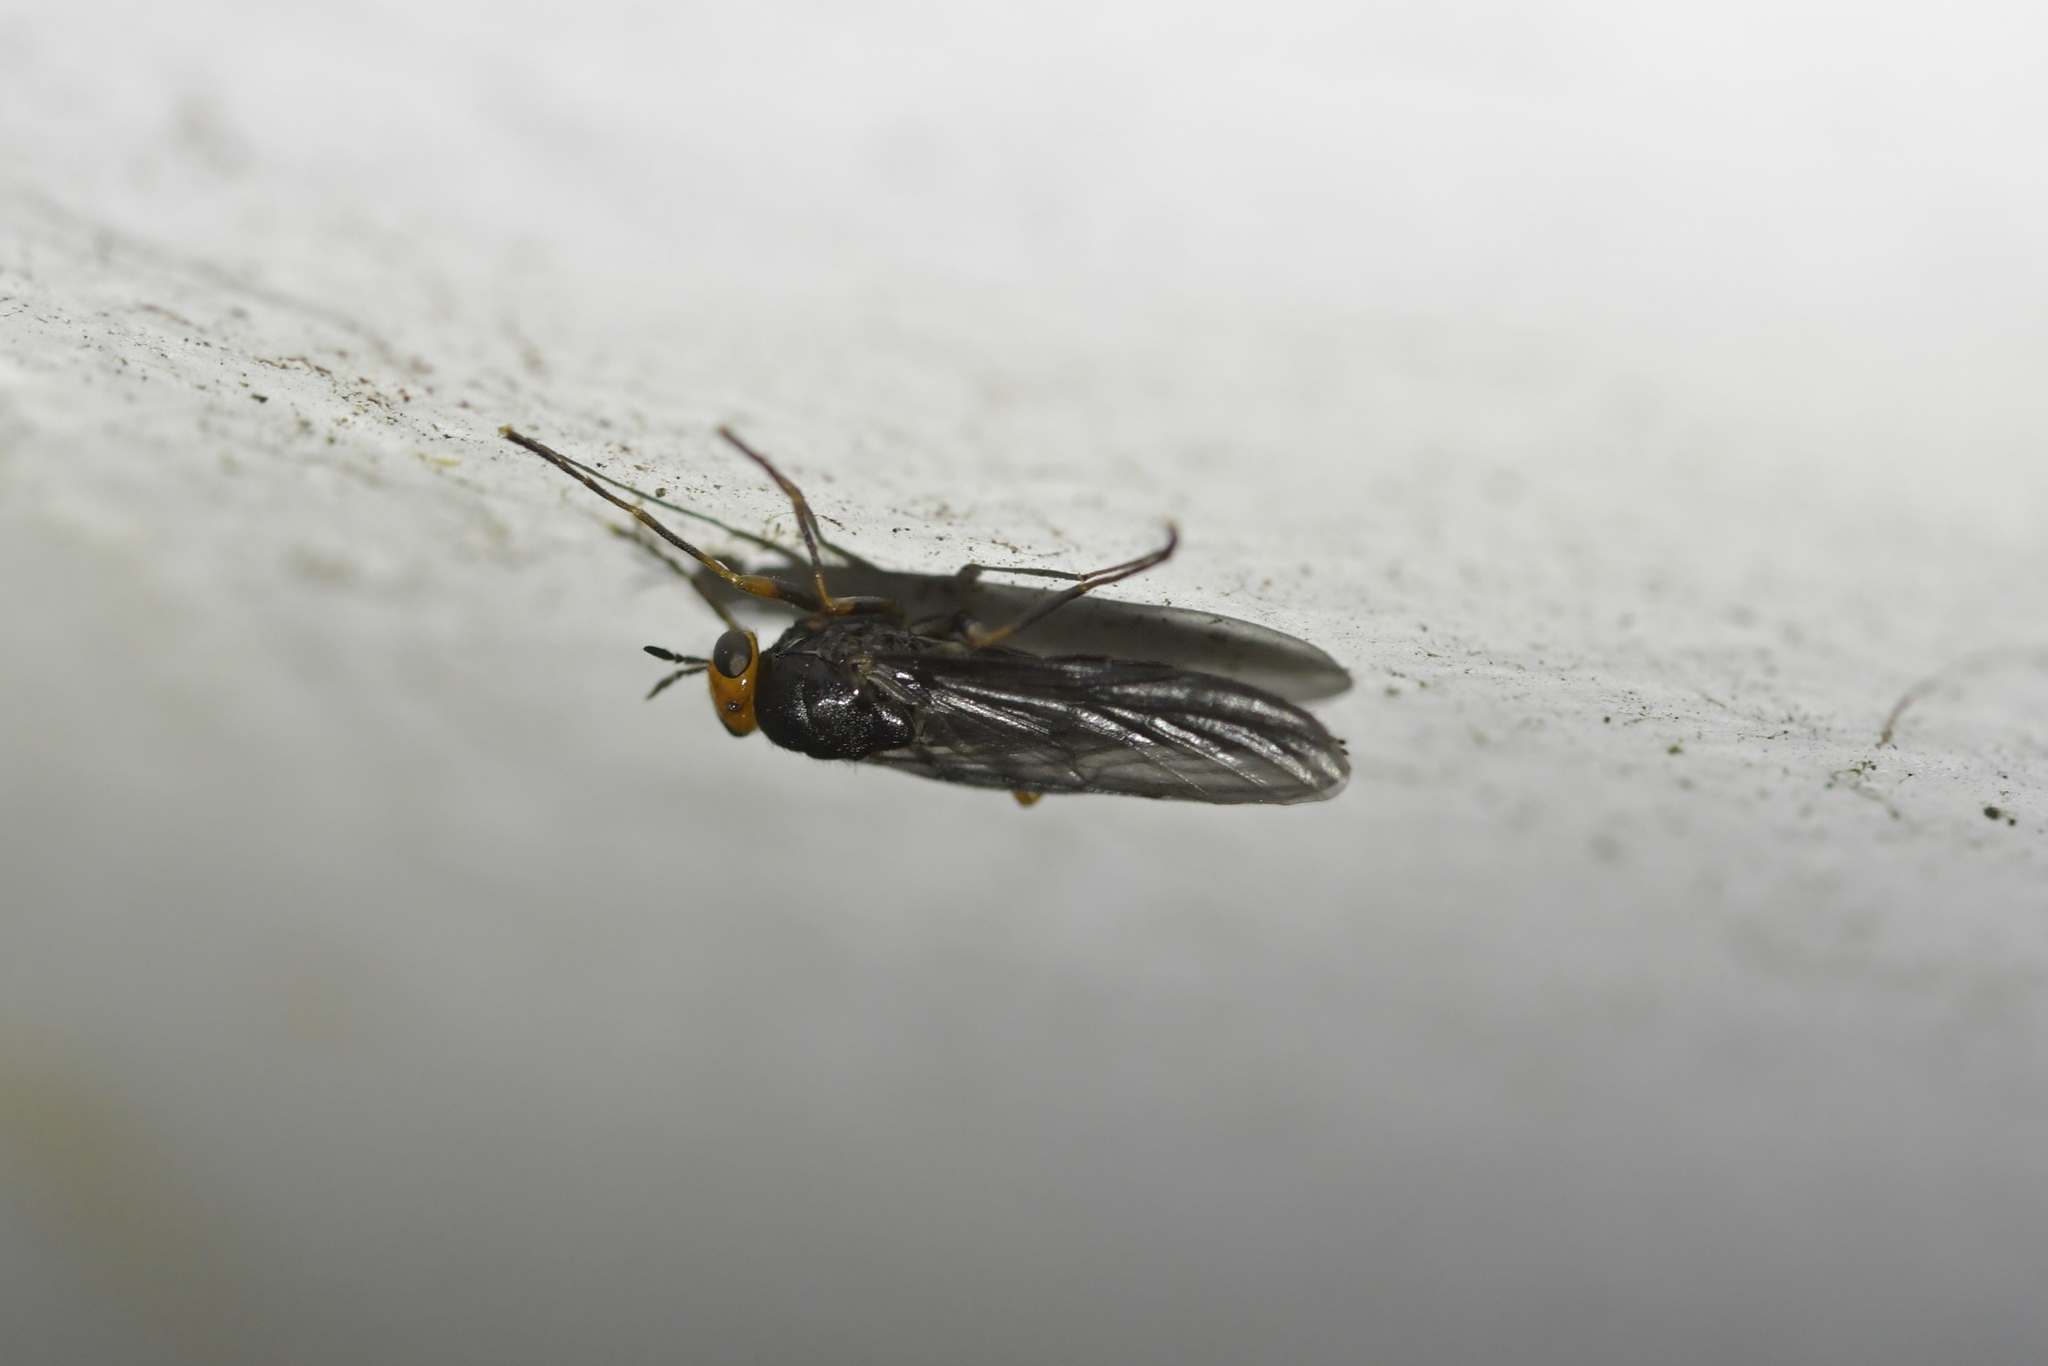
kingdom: Animalia
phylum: Arthropoda
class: Insecta
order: Diptera
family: Stratiomyidae
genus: Inopus
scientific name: Inopus rubriceps
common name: Soldier fly
